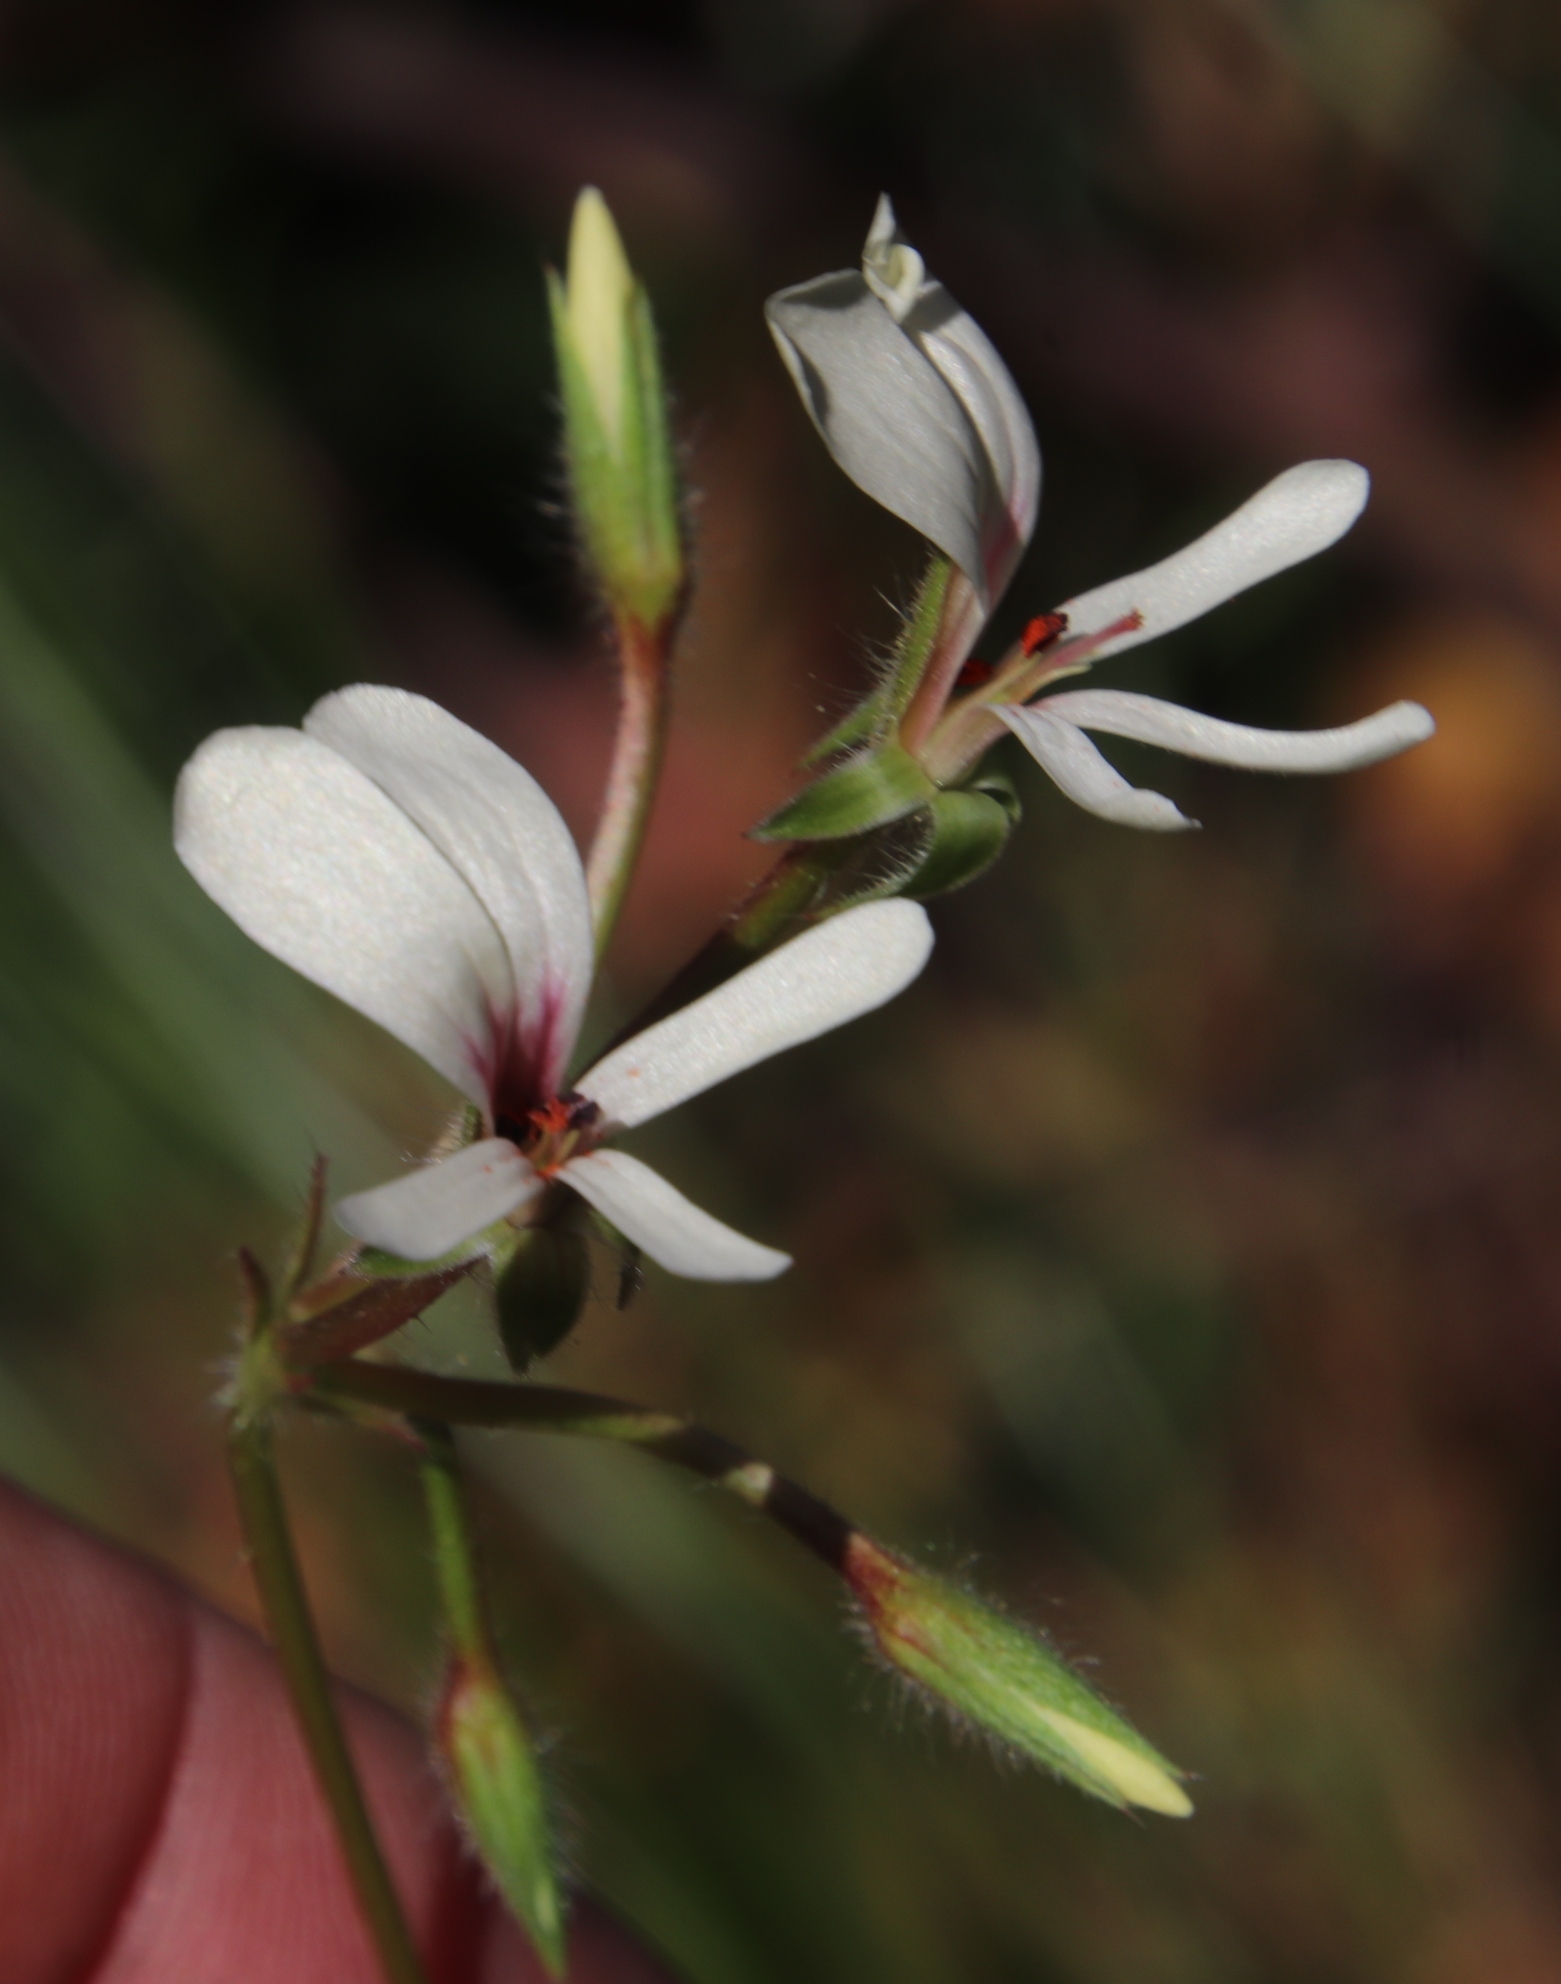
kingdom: Plantae
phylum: Tracheophyta
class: Magnoliopsida
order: Geraniales
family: Geraniaceae
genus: Pelargonium
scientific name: Pelargonium elongatum
